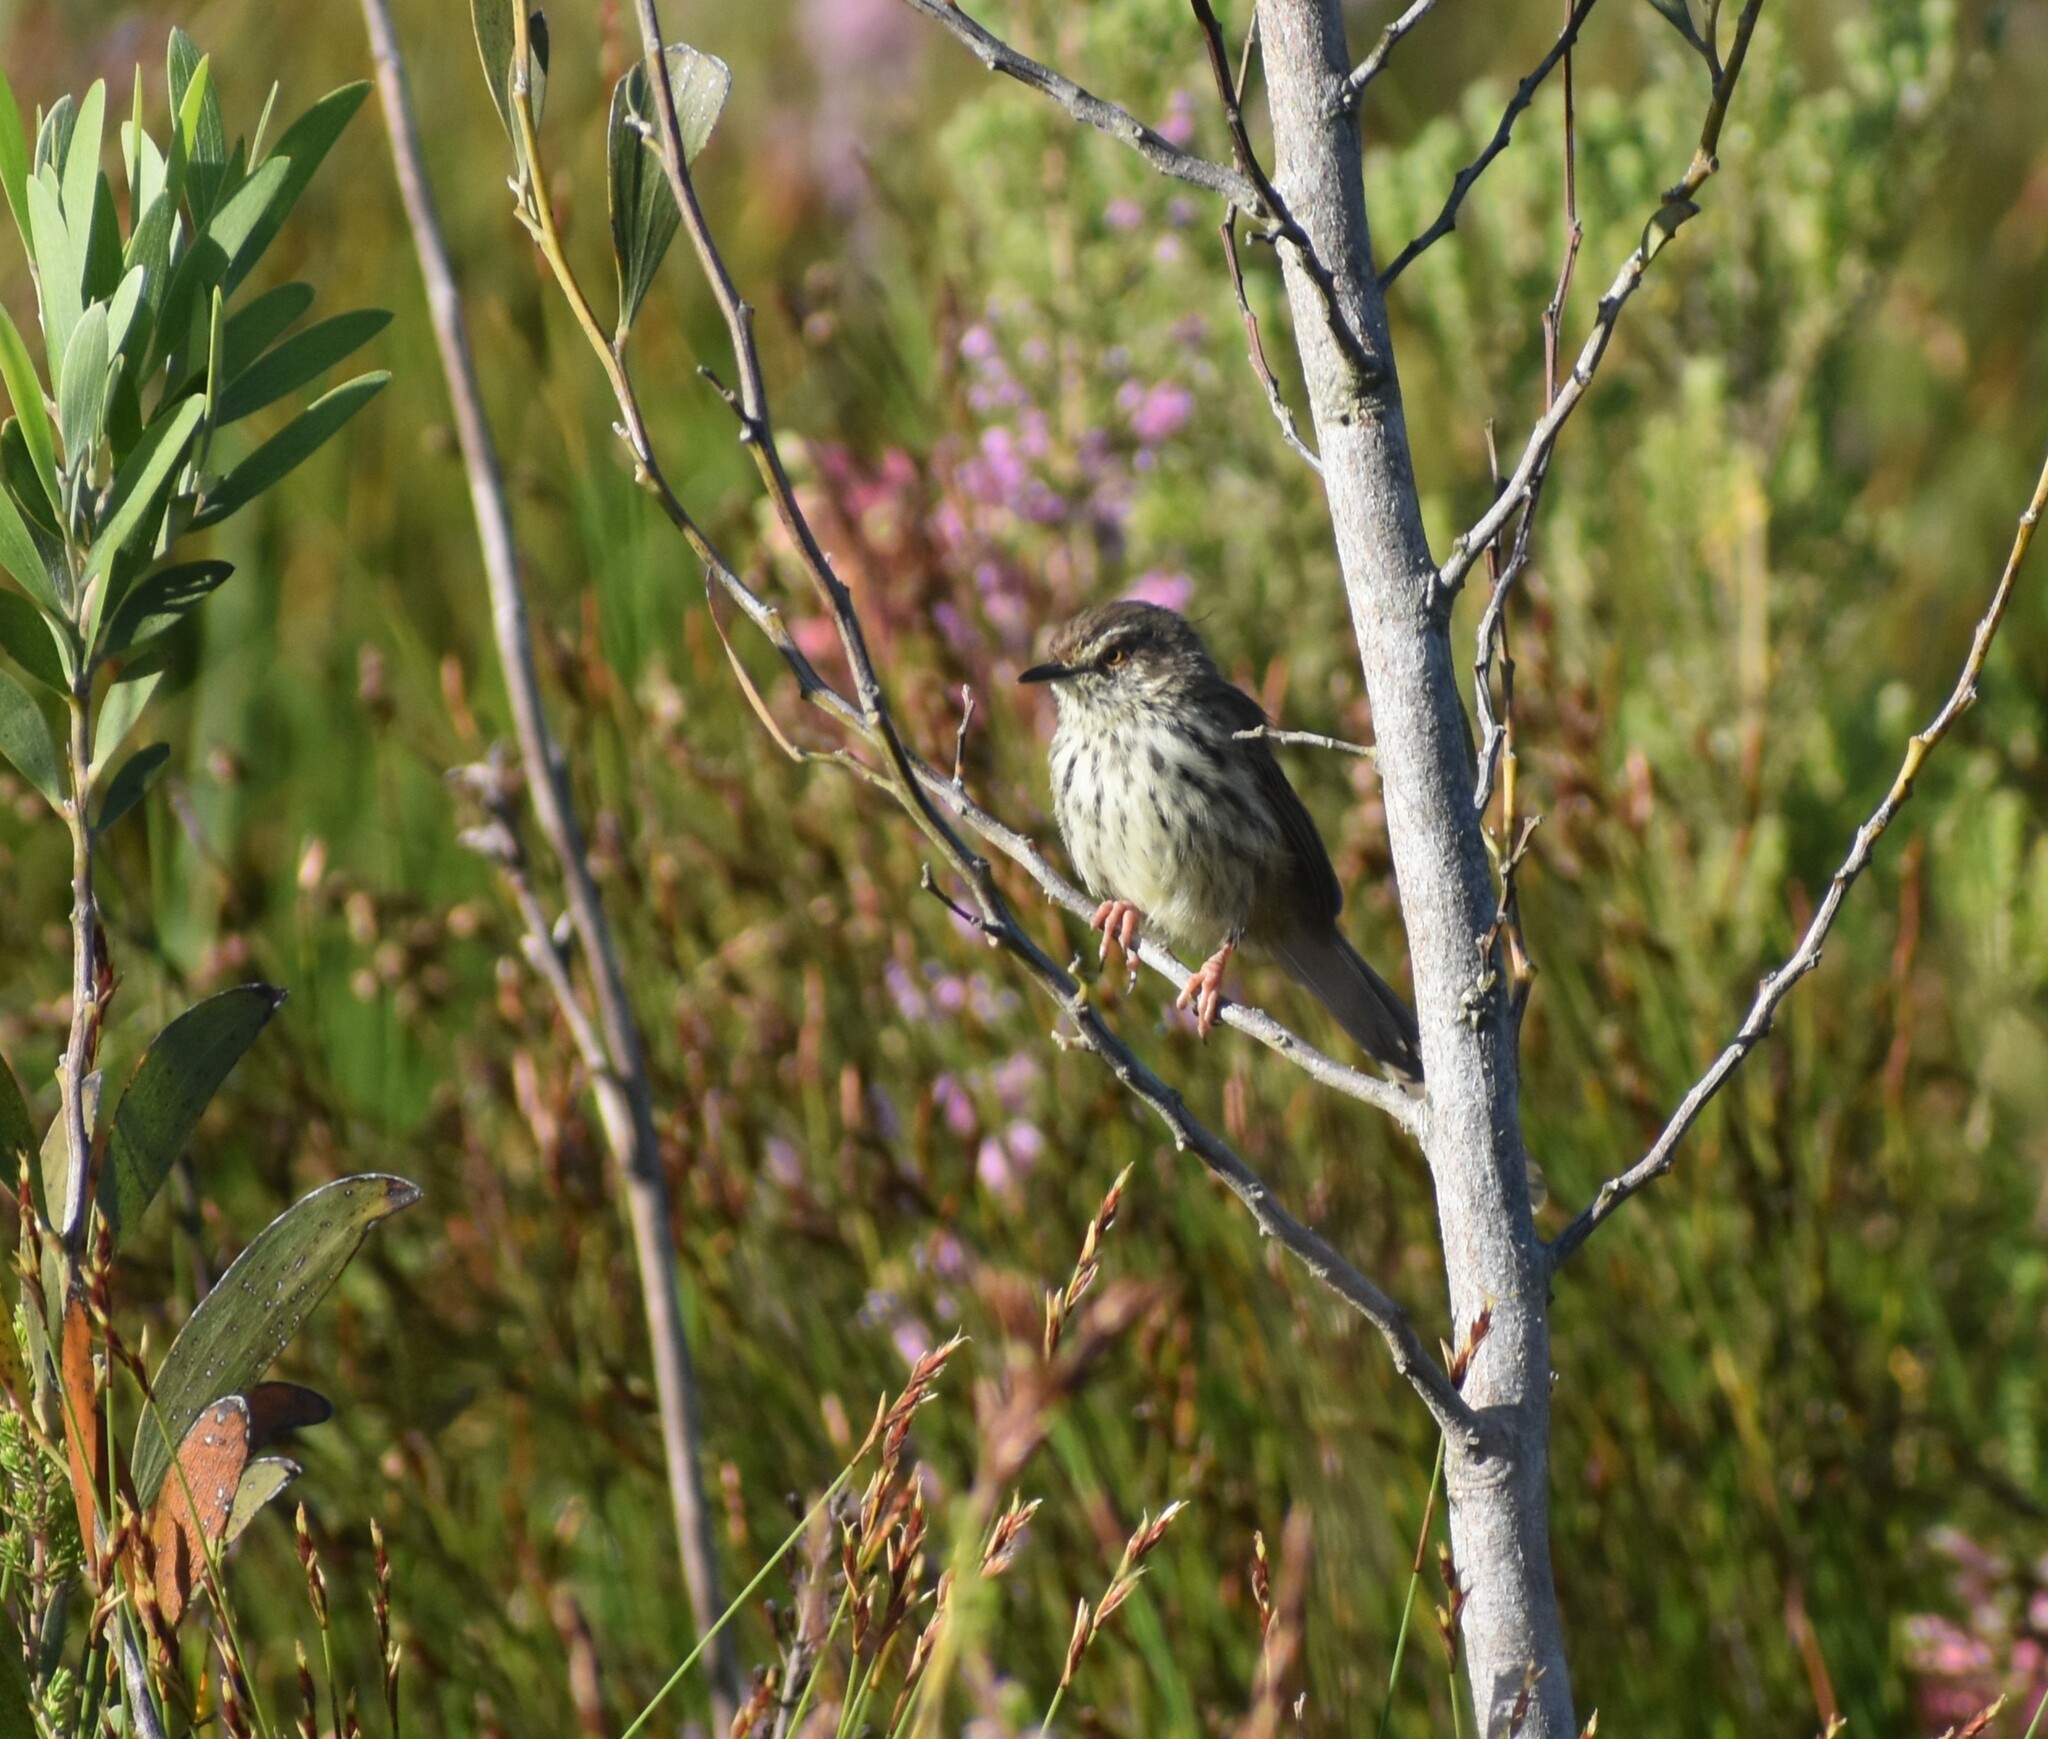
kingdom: Animalia
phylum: Chordata
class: Aves
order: Passeriformes
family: Cisticolidae
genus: Prinia
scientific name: Prinia maculosa
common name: Karoo prinia
